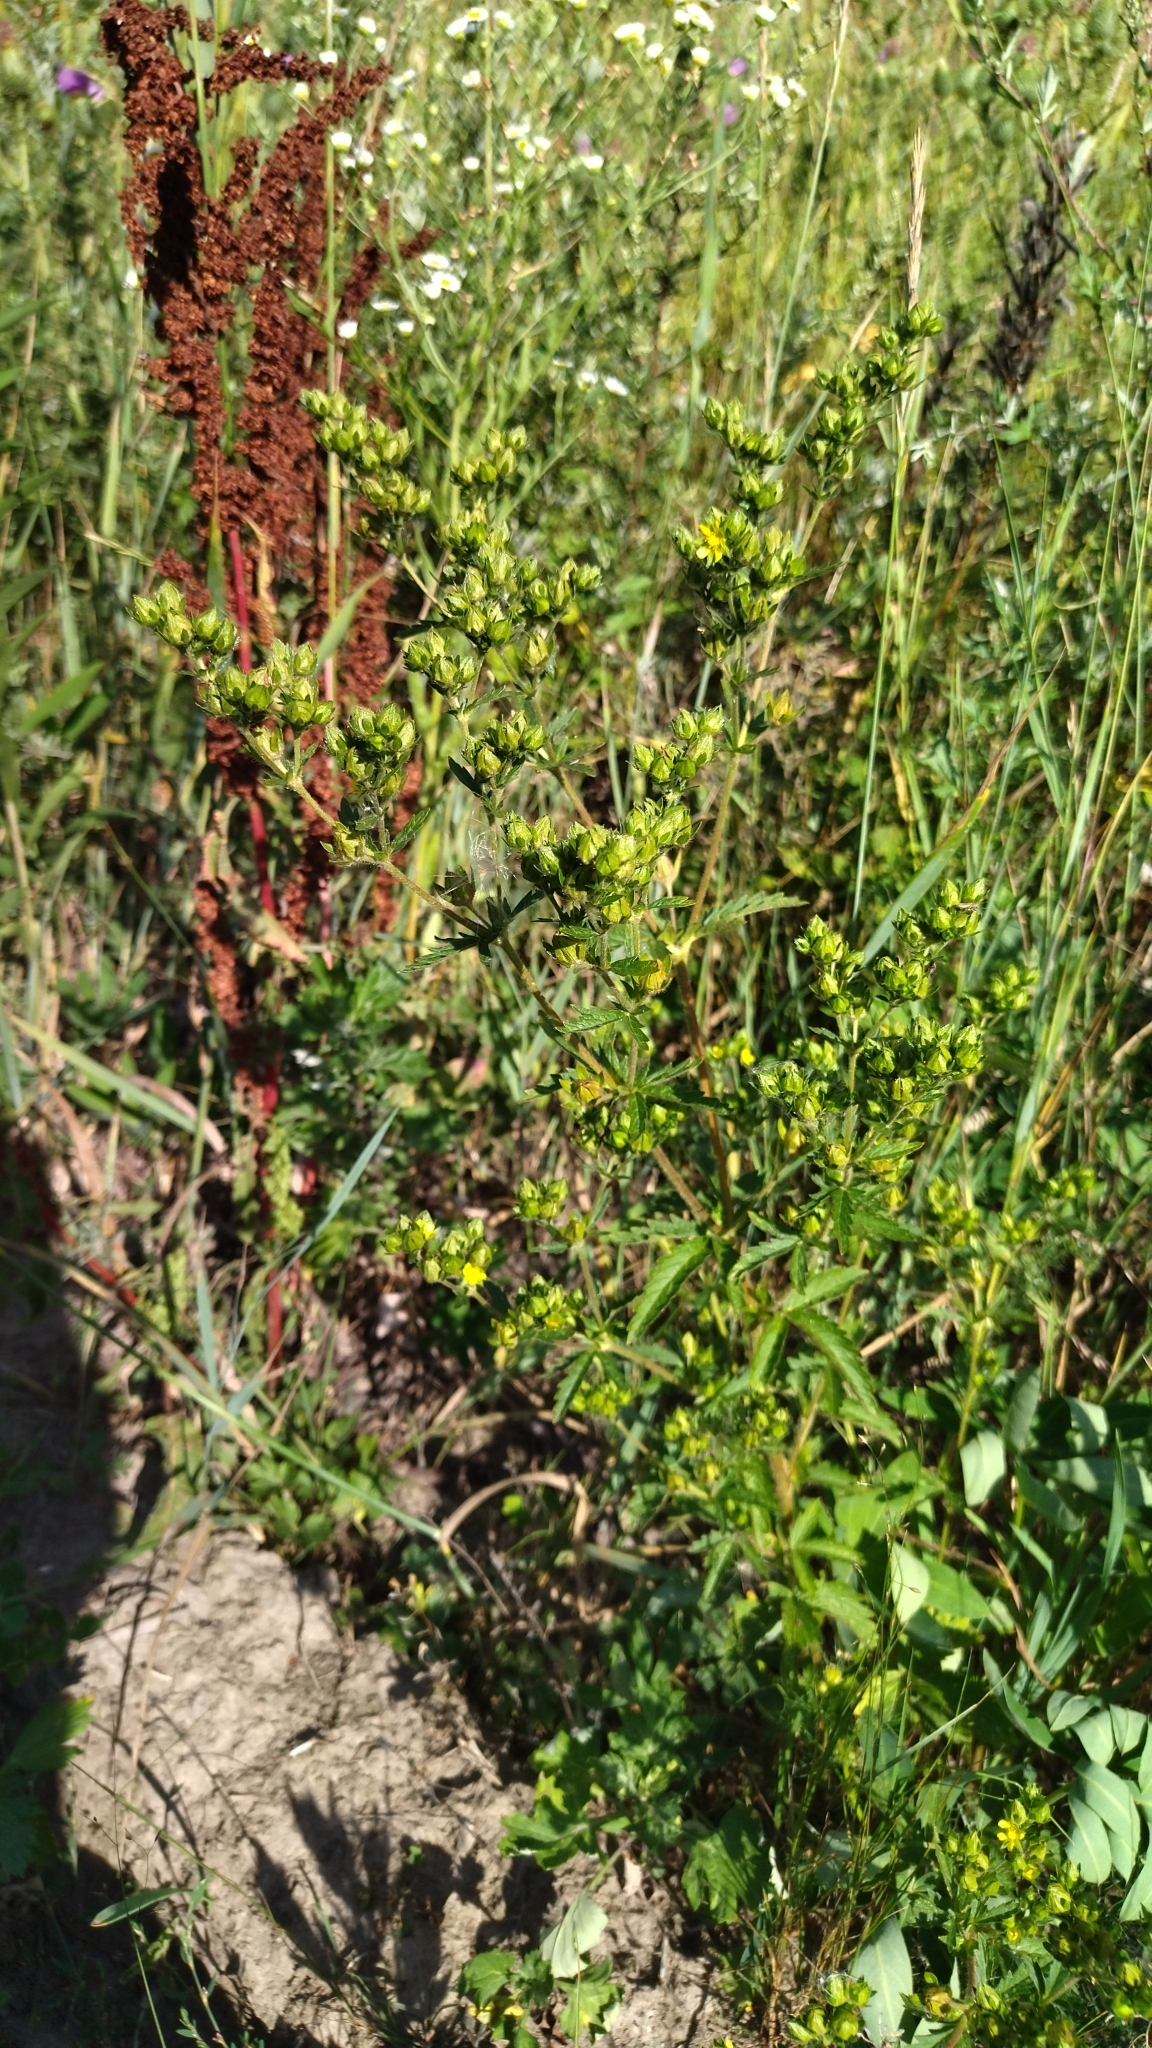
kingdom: Plantae
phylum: Tracheophyta
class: Magnoliopsida
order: Rosales
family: Rosaceae
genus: Potentilla
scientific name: Potentilla norvegica
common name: Ternate-leaved cinquefoil
